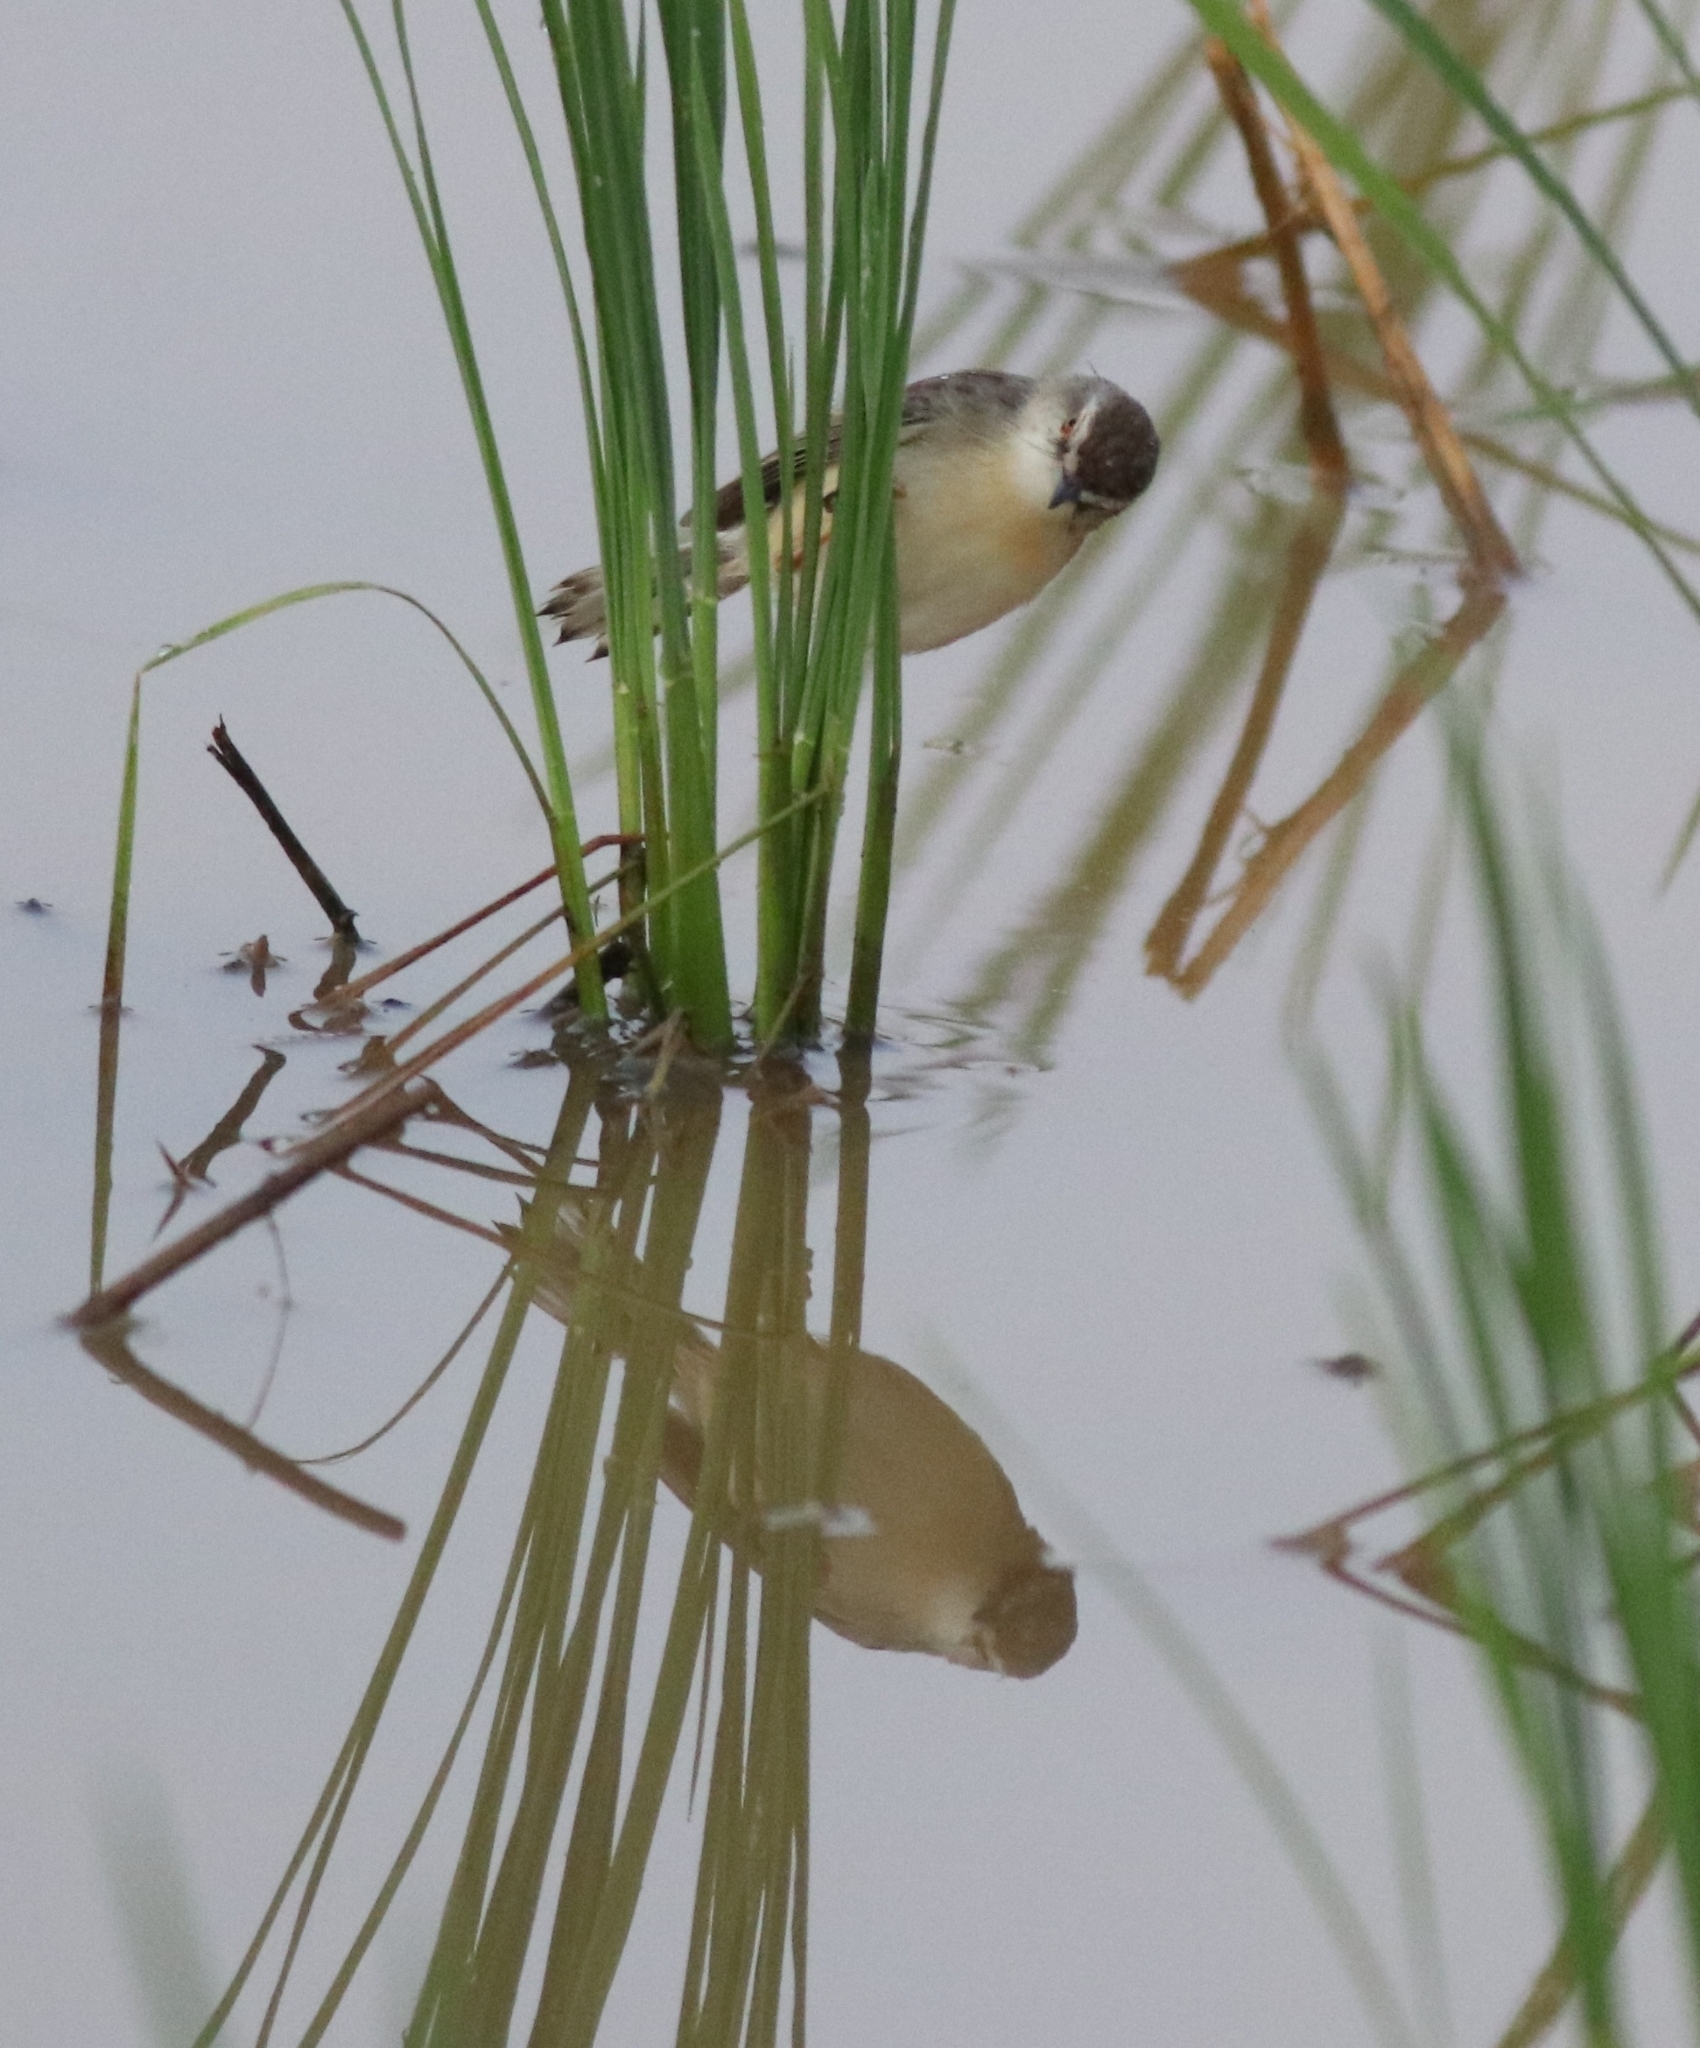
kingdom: Animalia
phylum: Chordata
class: Aves
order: Passeriformes
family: Cisticolidae
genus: Prinia
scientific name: Prinia inornata
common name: Plain prinia
